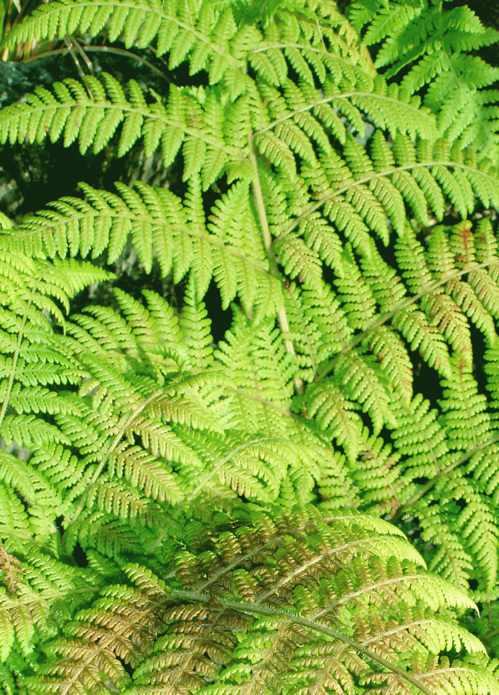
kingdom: Plantae
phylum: Tracheophyta
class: Polypodiopsida
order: Polypodiales
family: Dennstaedtiaceae
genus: Hypolepis
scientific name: Hypolepis dicksonioides
